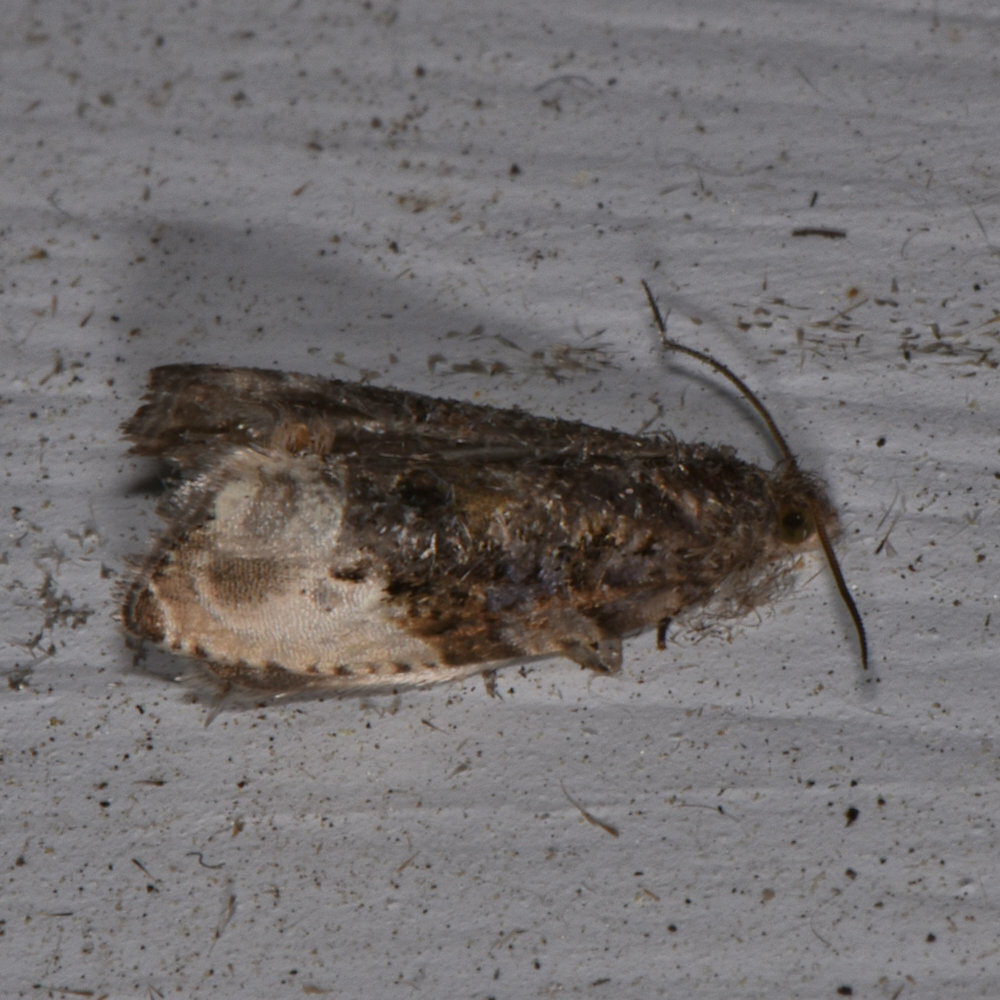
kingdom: Animalia
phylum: Arthropoda
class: Insecta
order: Lepidoptera
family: Tortricidae
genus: Hedya
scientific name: Hedya nubiferana
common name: Marbled orchard tortrix
